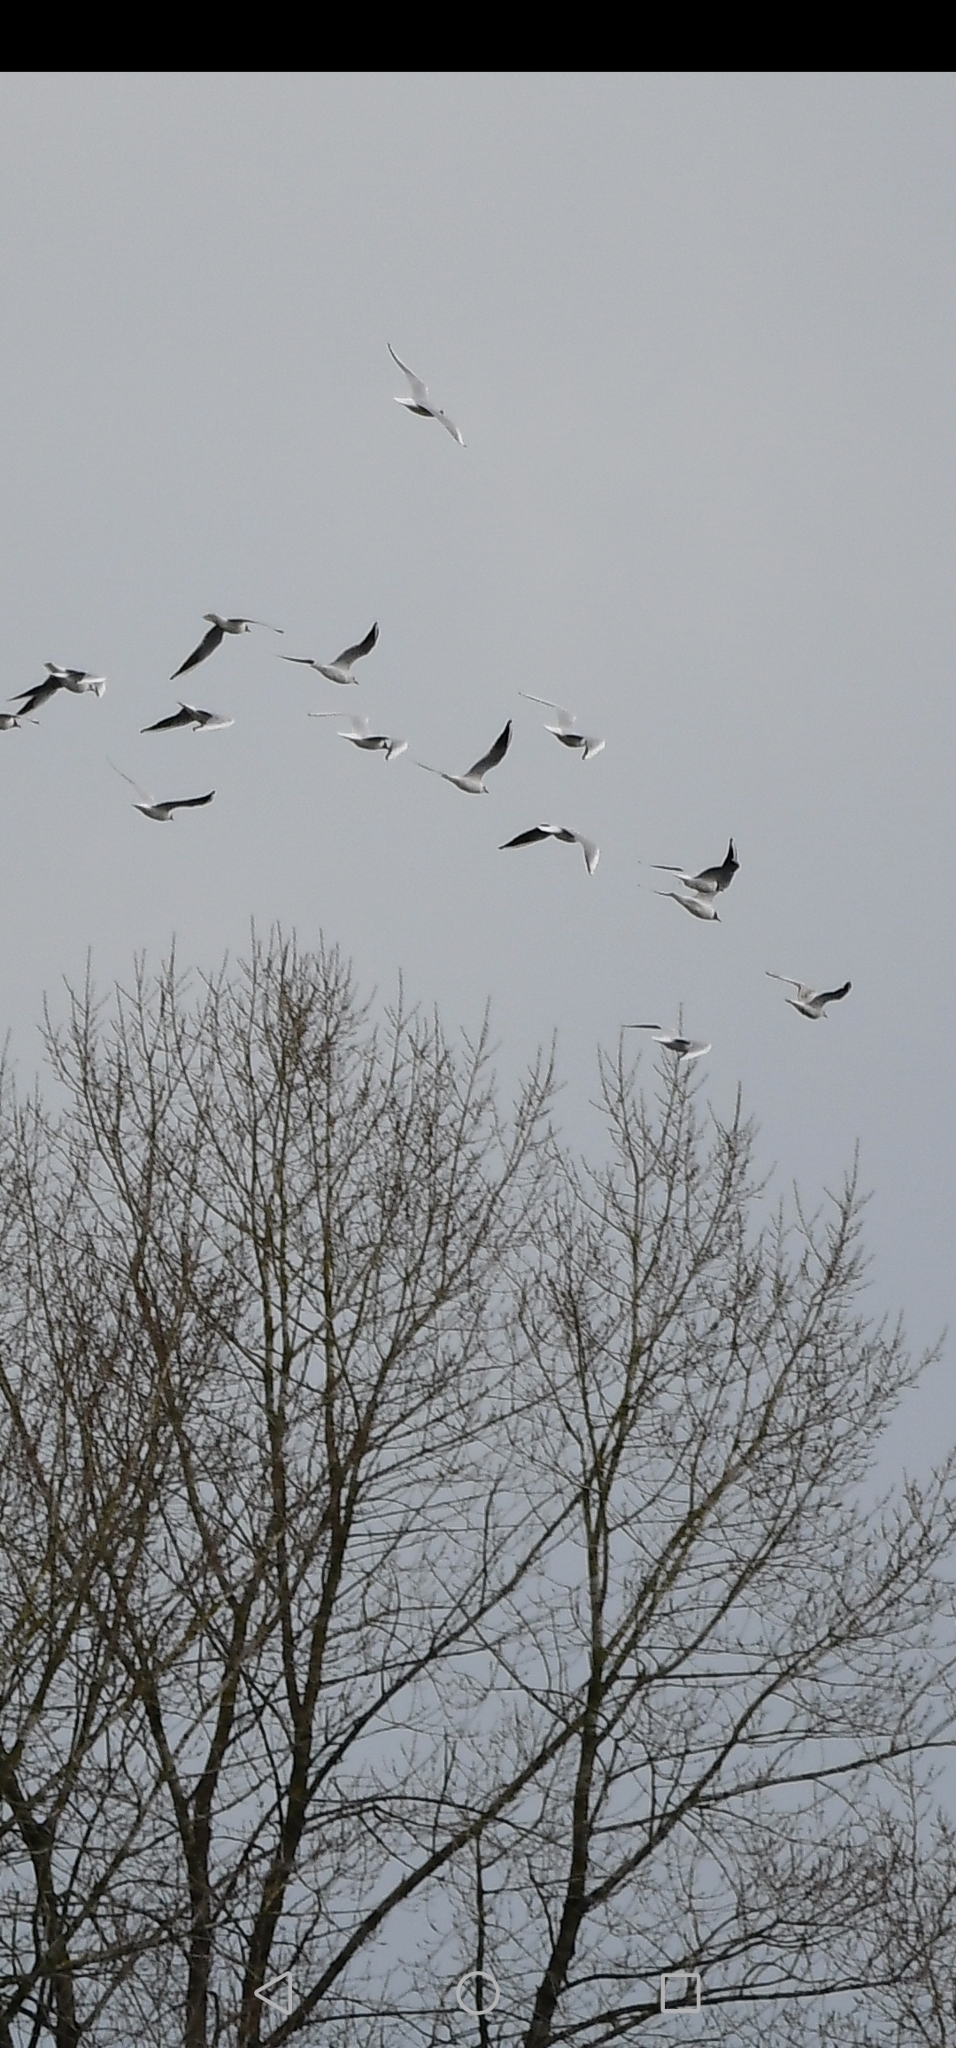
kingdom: Animalia
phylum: Chordata
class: Aves
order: Charadriiformes
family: Laridae
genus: Chroicocephalus
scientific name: Chroicocephalus ridibundus
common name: Black-headed gull
